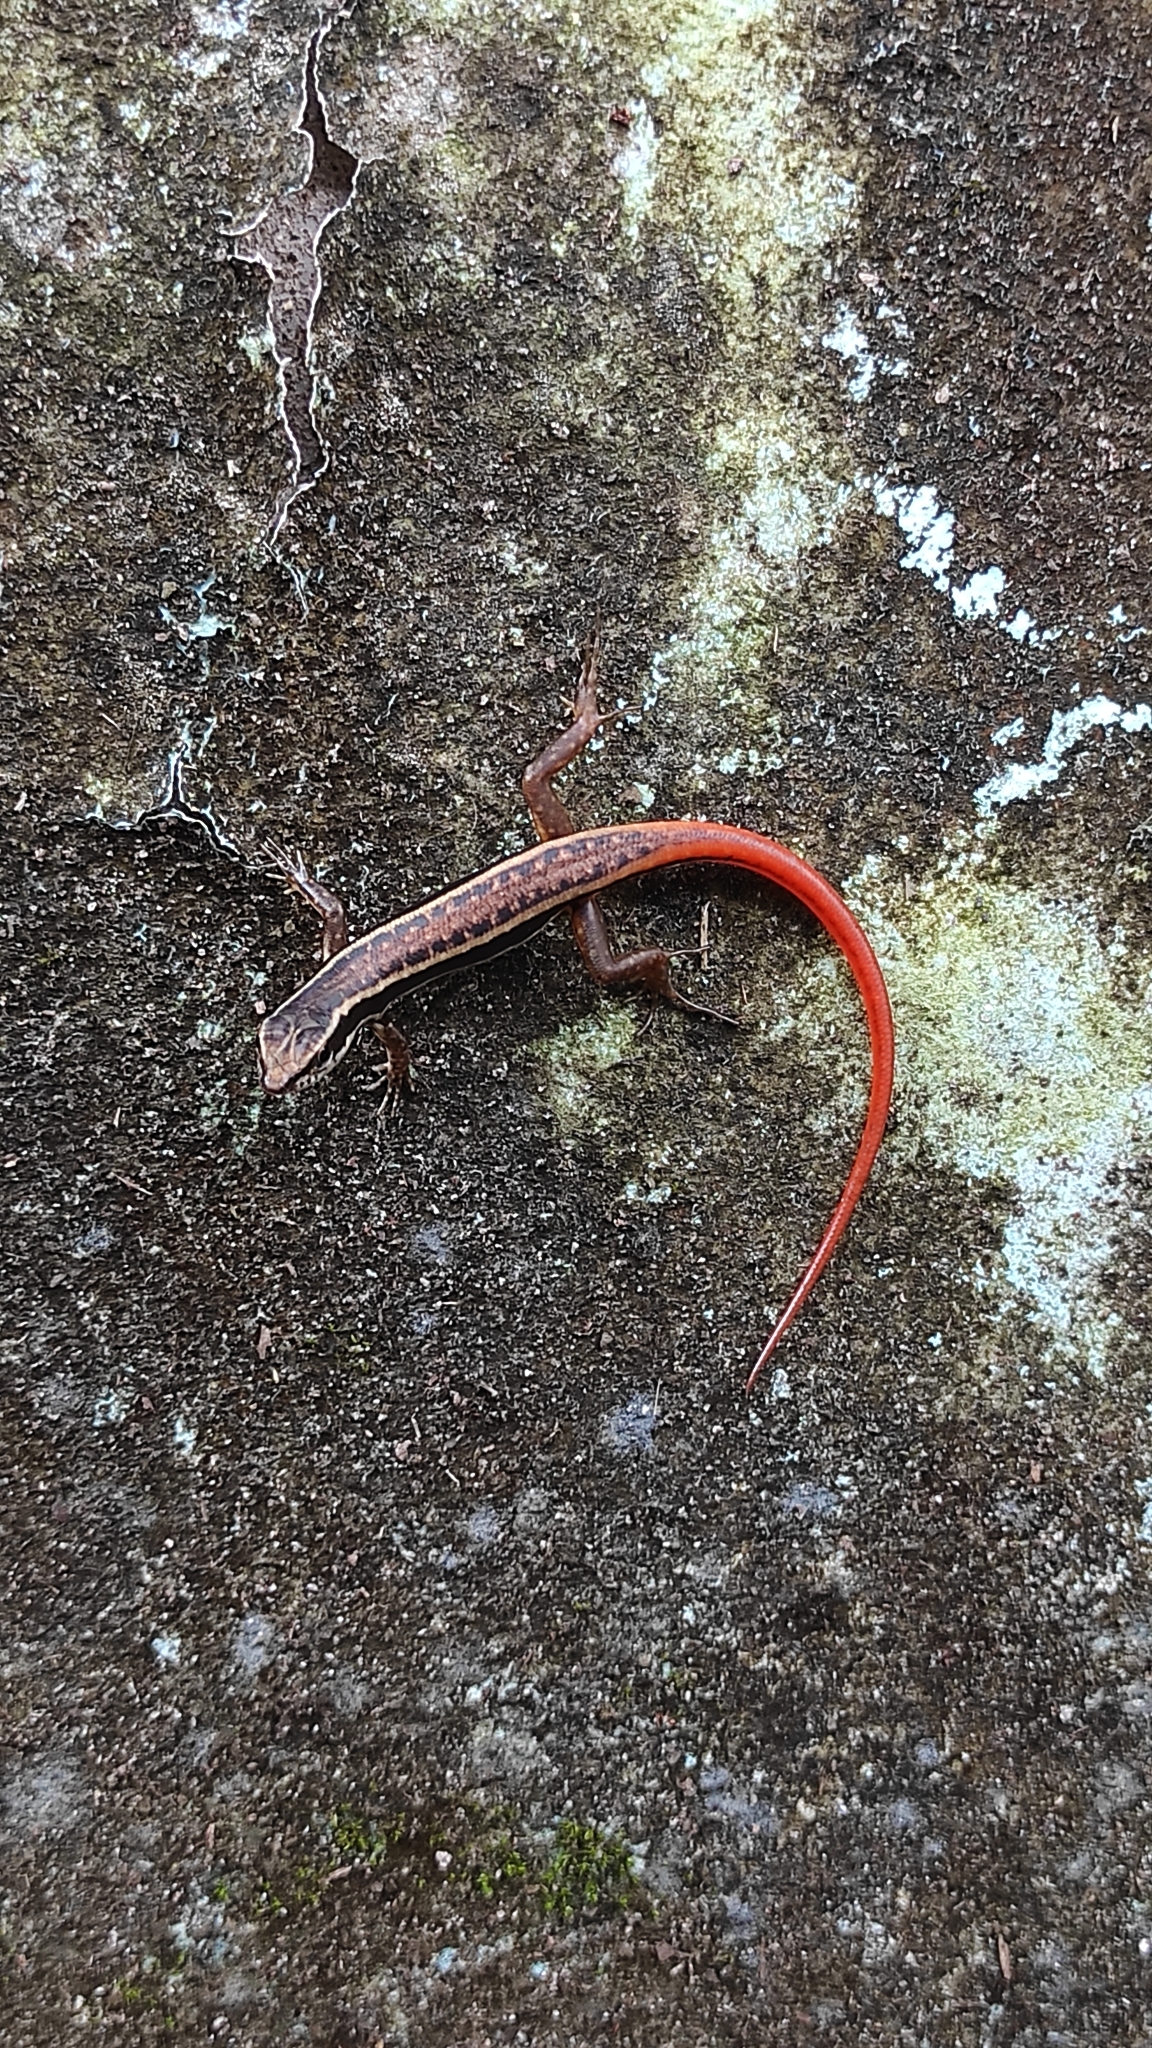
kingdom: Animalia
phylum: Chordata
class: Squamata
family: Scincidae
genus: Sphenomorphus
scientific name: Sphenomorphus dussumieri
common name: Dussumier's forest skink
